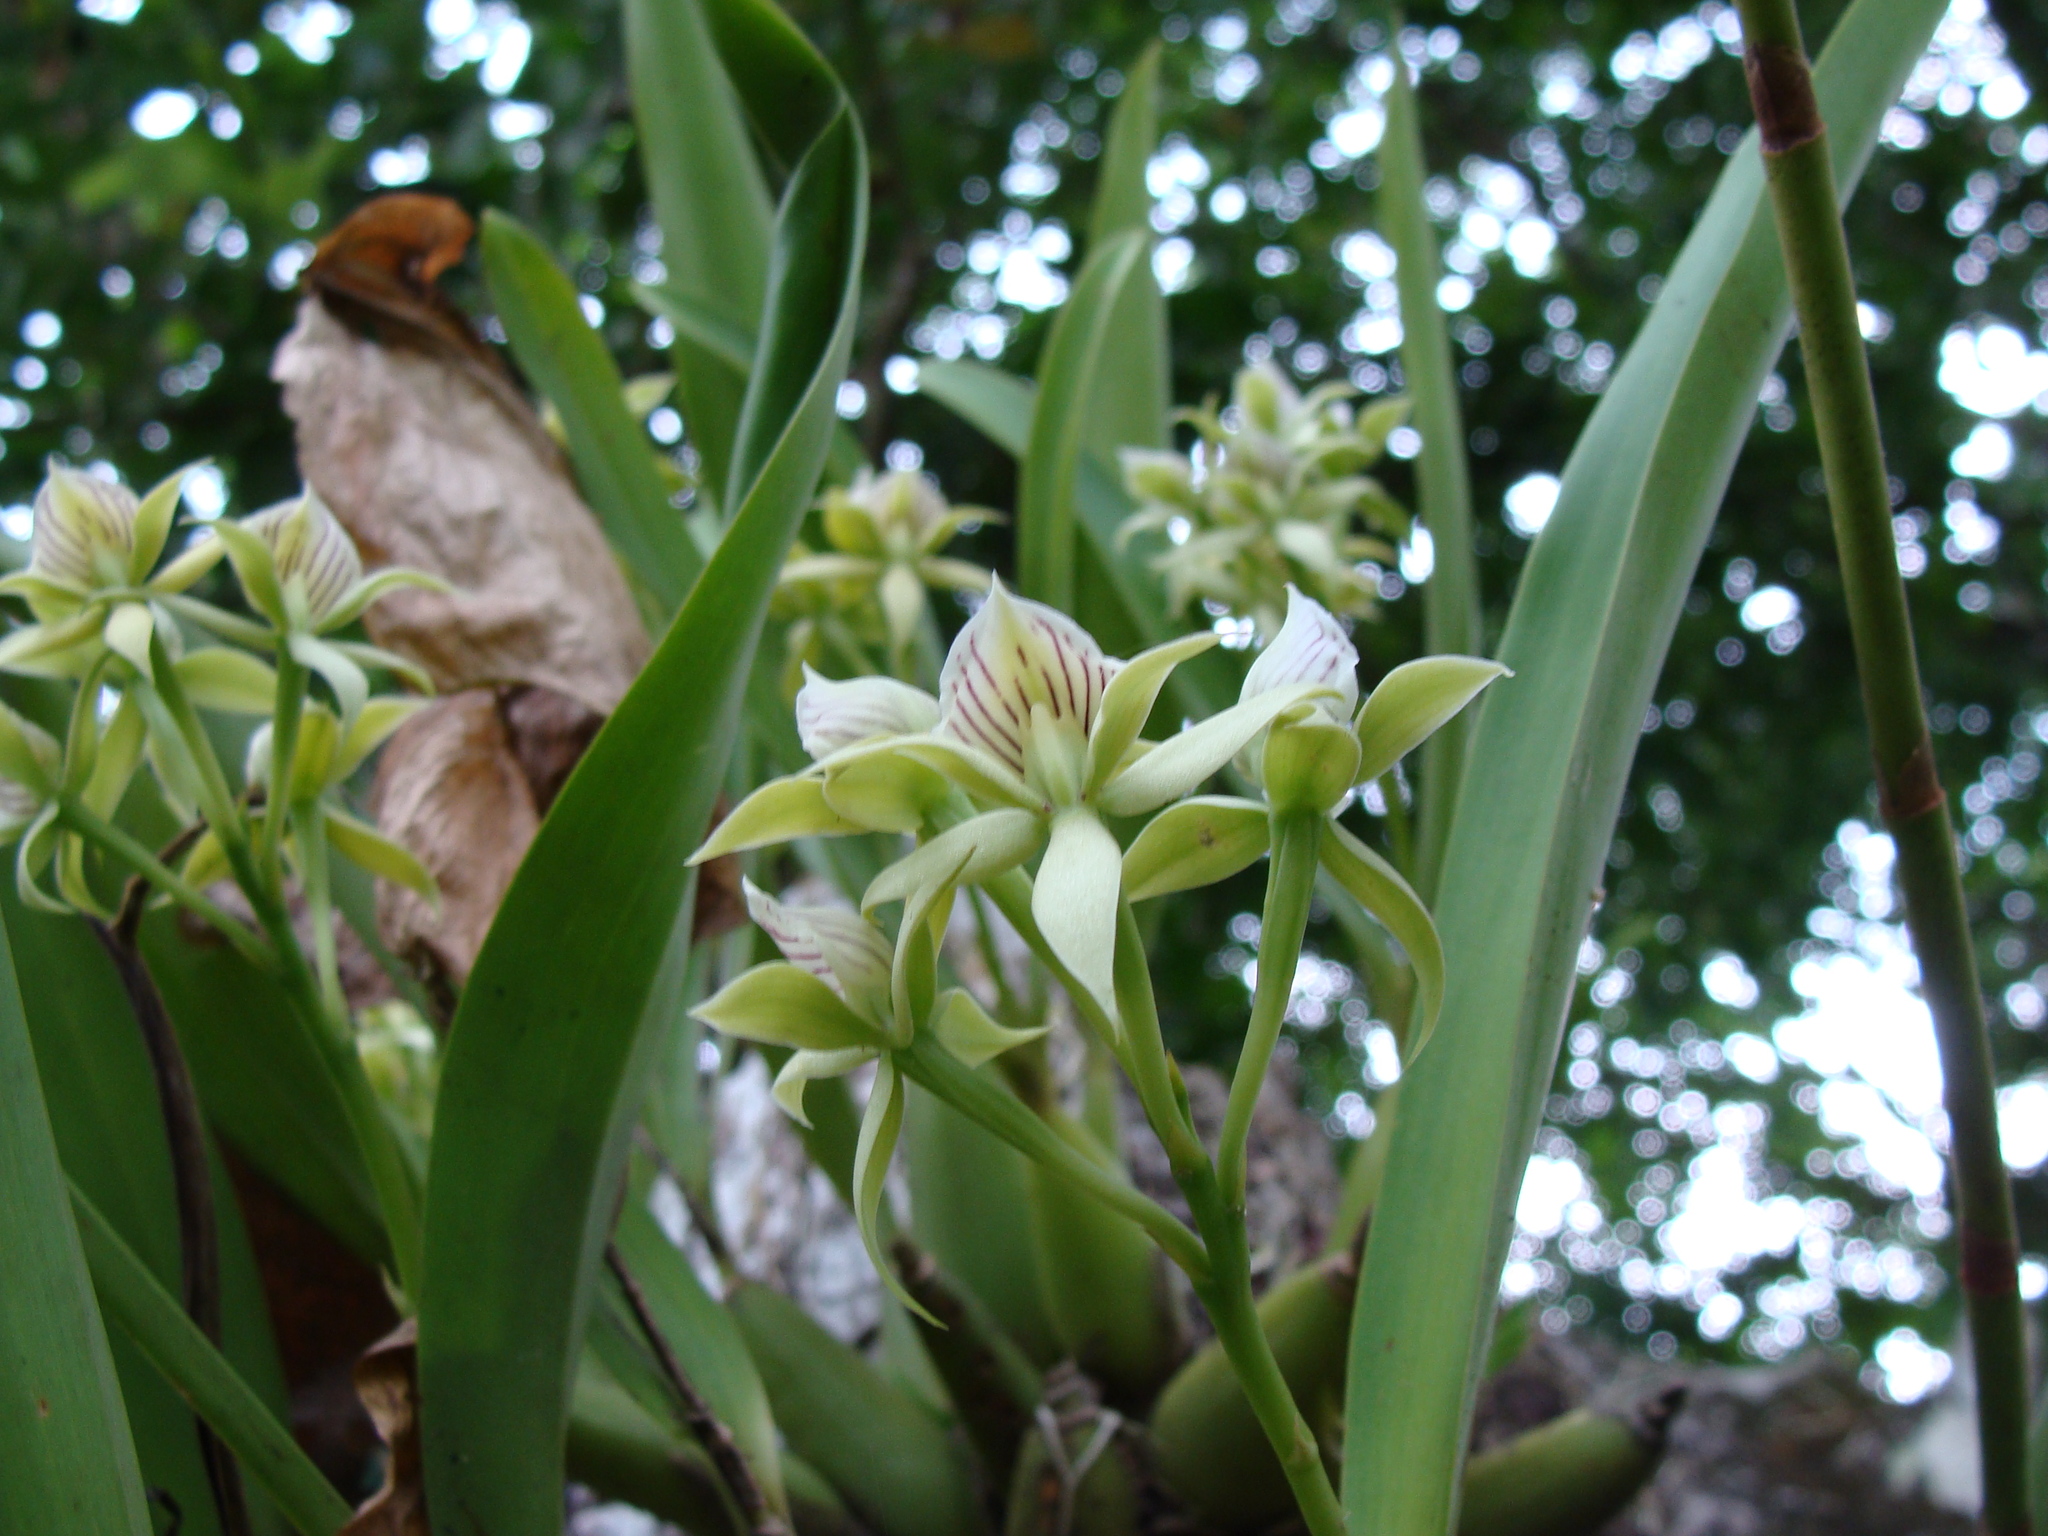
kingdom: Plantae
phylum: Tracheophyta
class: Liliopsida
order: Asparagales
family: Orchidaceae
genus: Prosthechea
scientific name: Prosthechea chacaoensis
